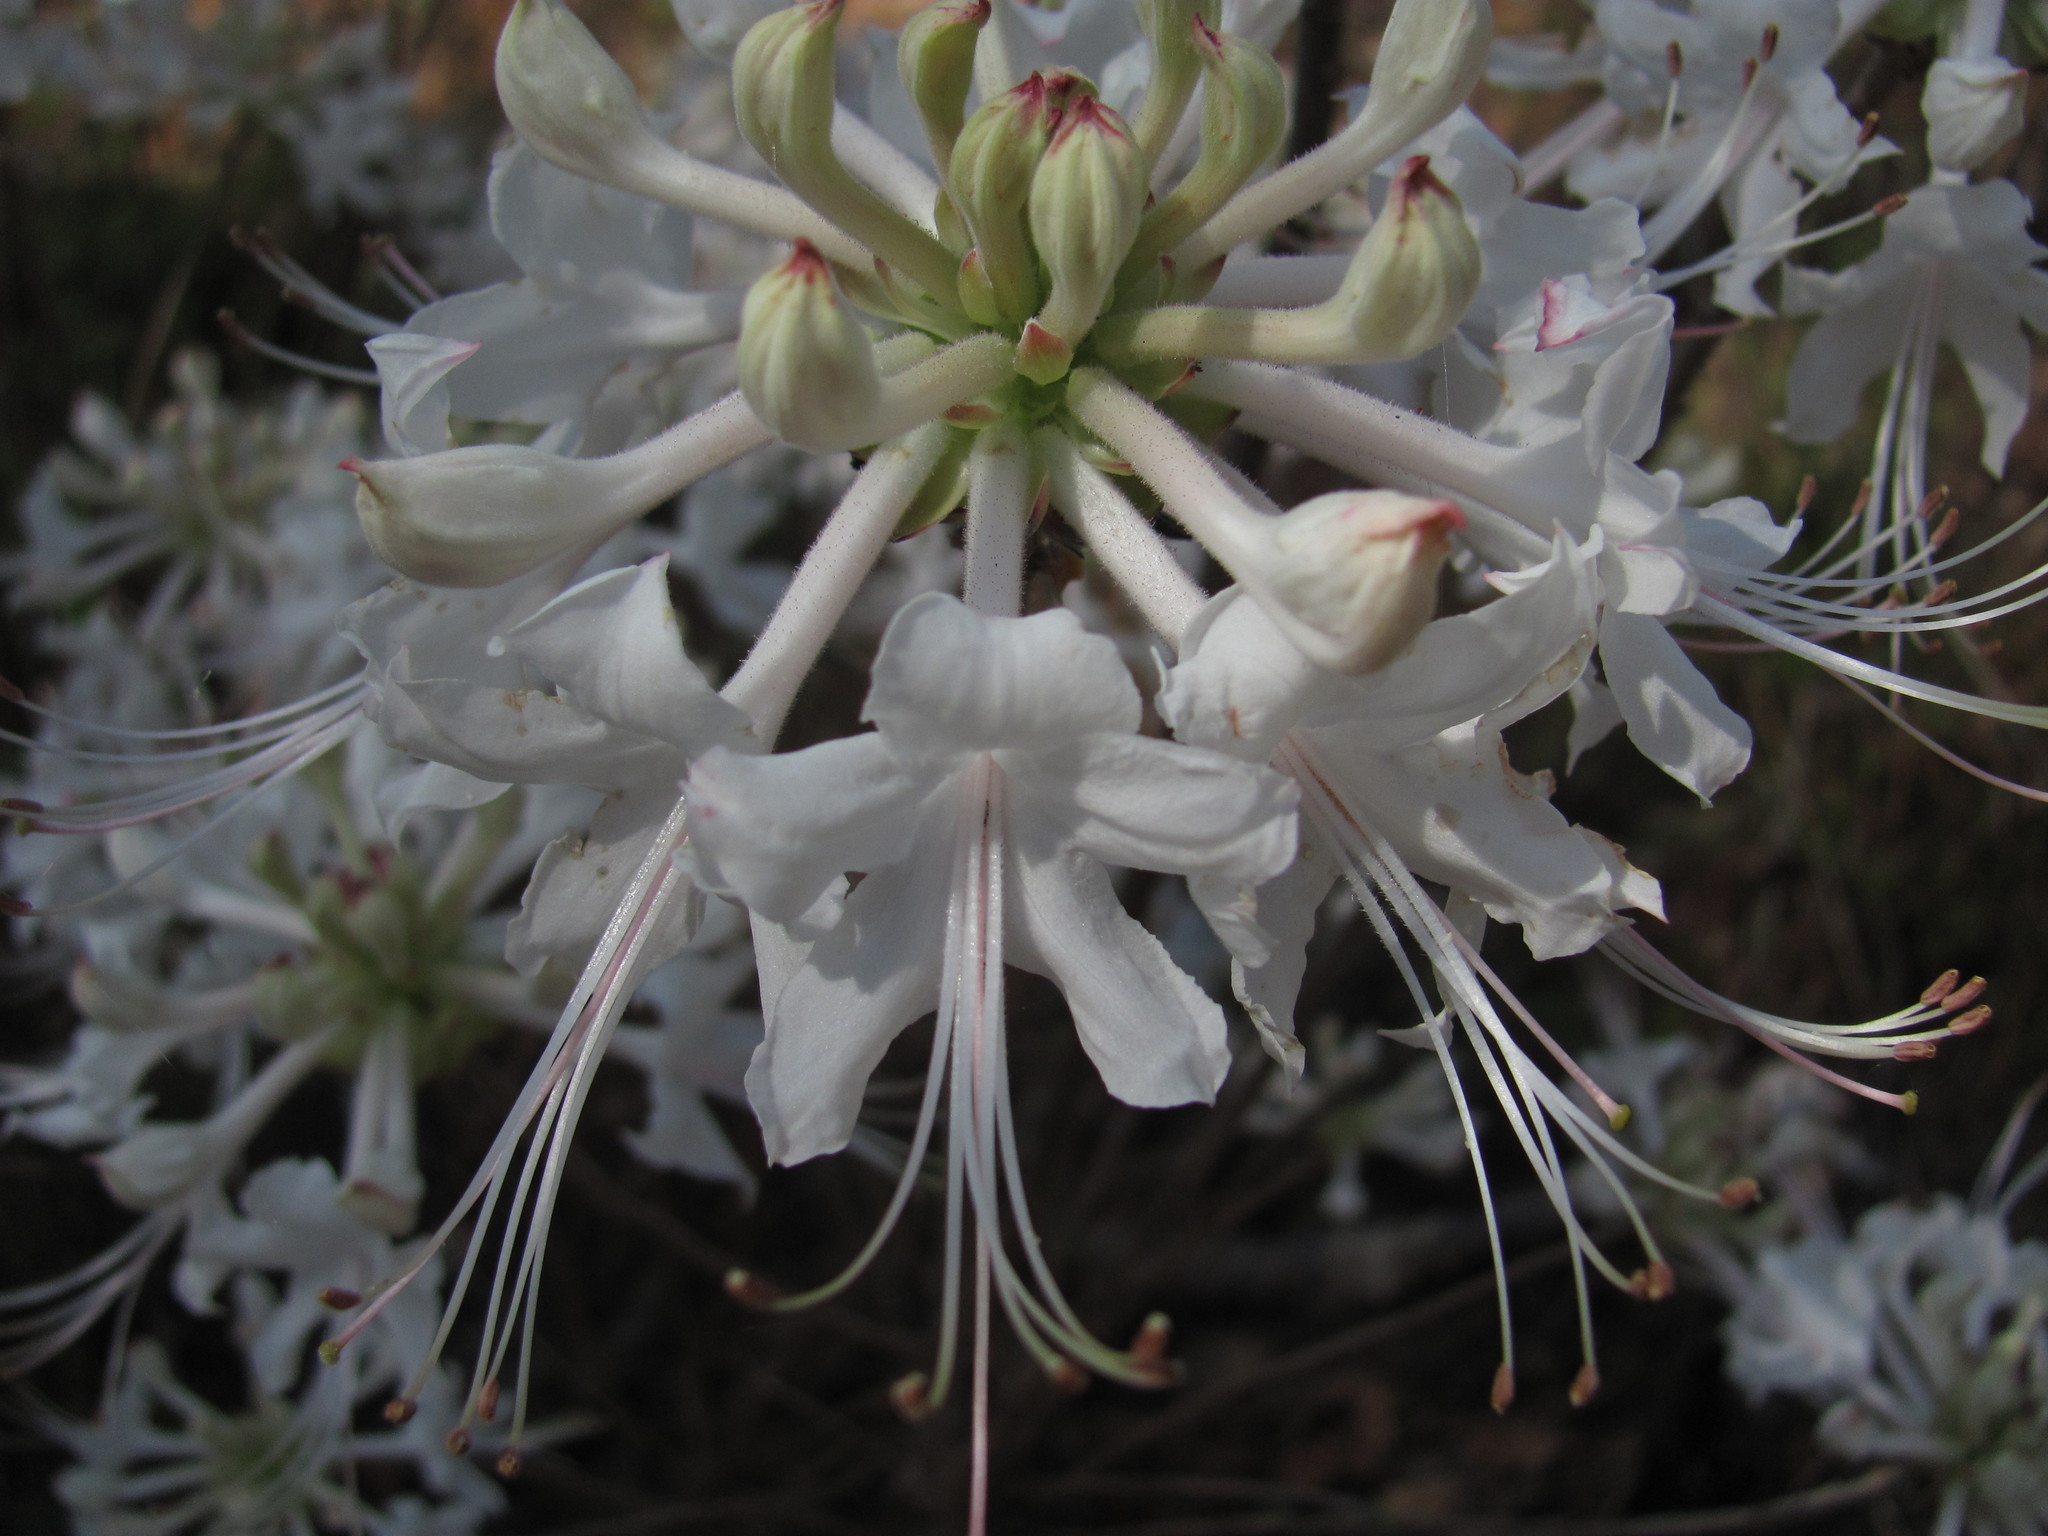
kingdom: Plantae
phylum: Tracheophyta
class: Magnoliopsida
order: Ericales
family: Ericaceae
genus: Rhododendron
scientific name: Rhododendron canescens
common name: Mountain azalea
